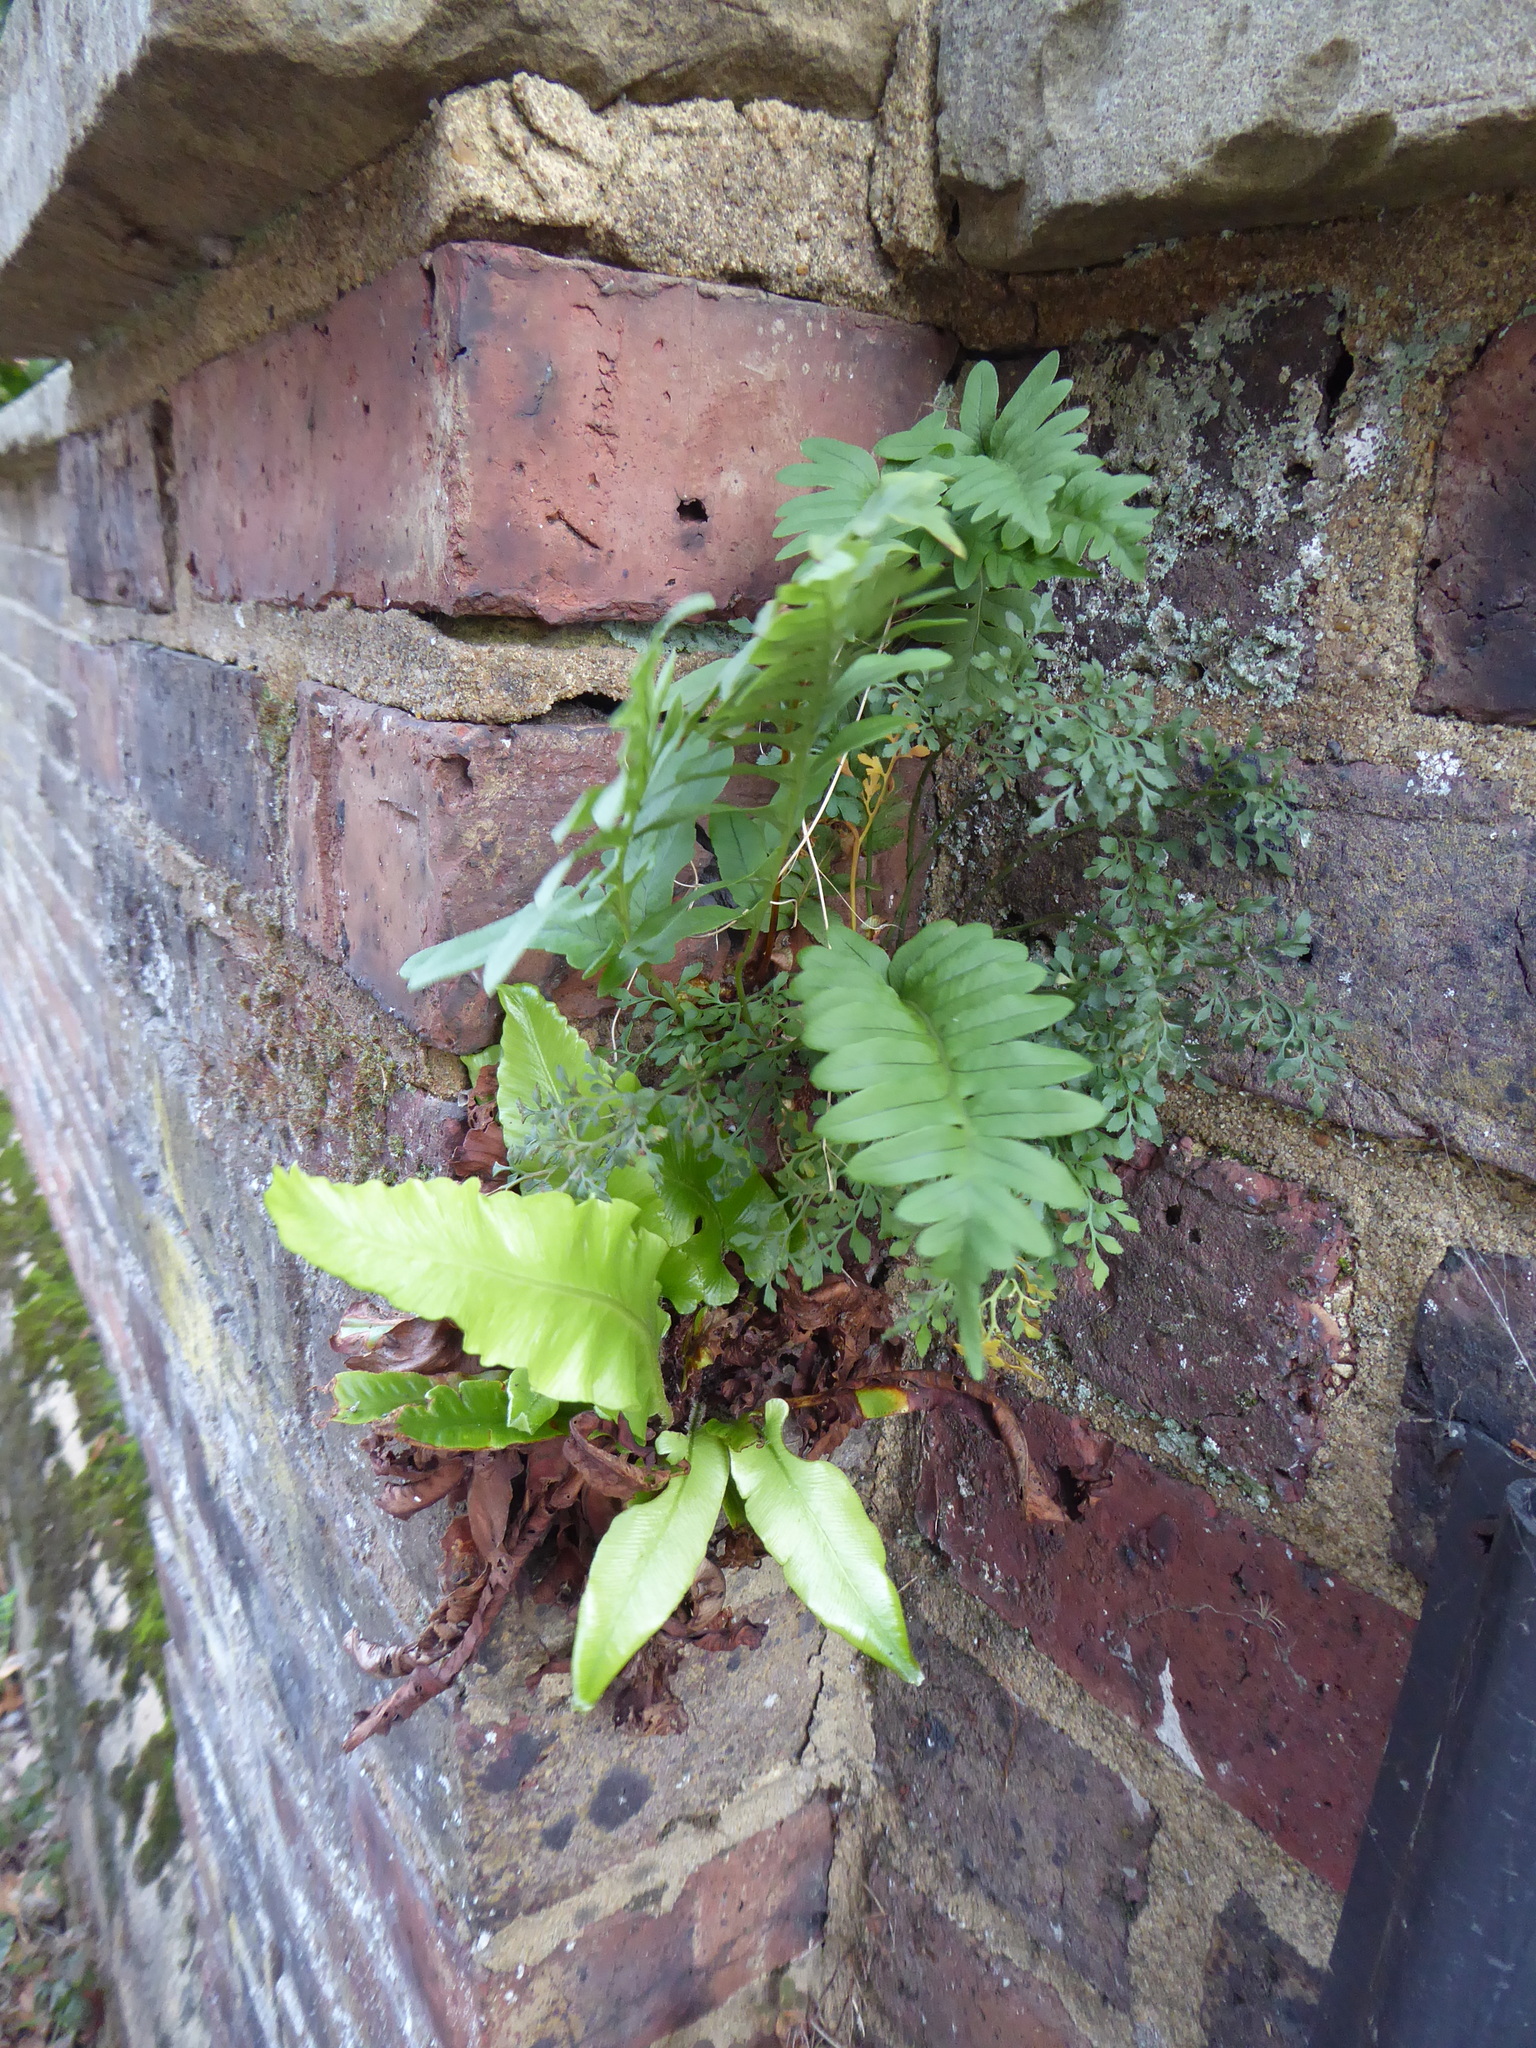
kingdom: Plantae
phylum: Tracheophyta
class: Polypodiopsida
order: Polypodiales
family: Aspleniaceae
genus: Asplenium
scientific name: Asplenium scolopendrium
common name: Hart's-tongue fern
